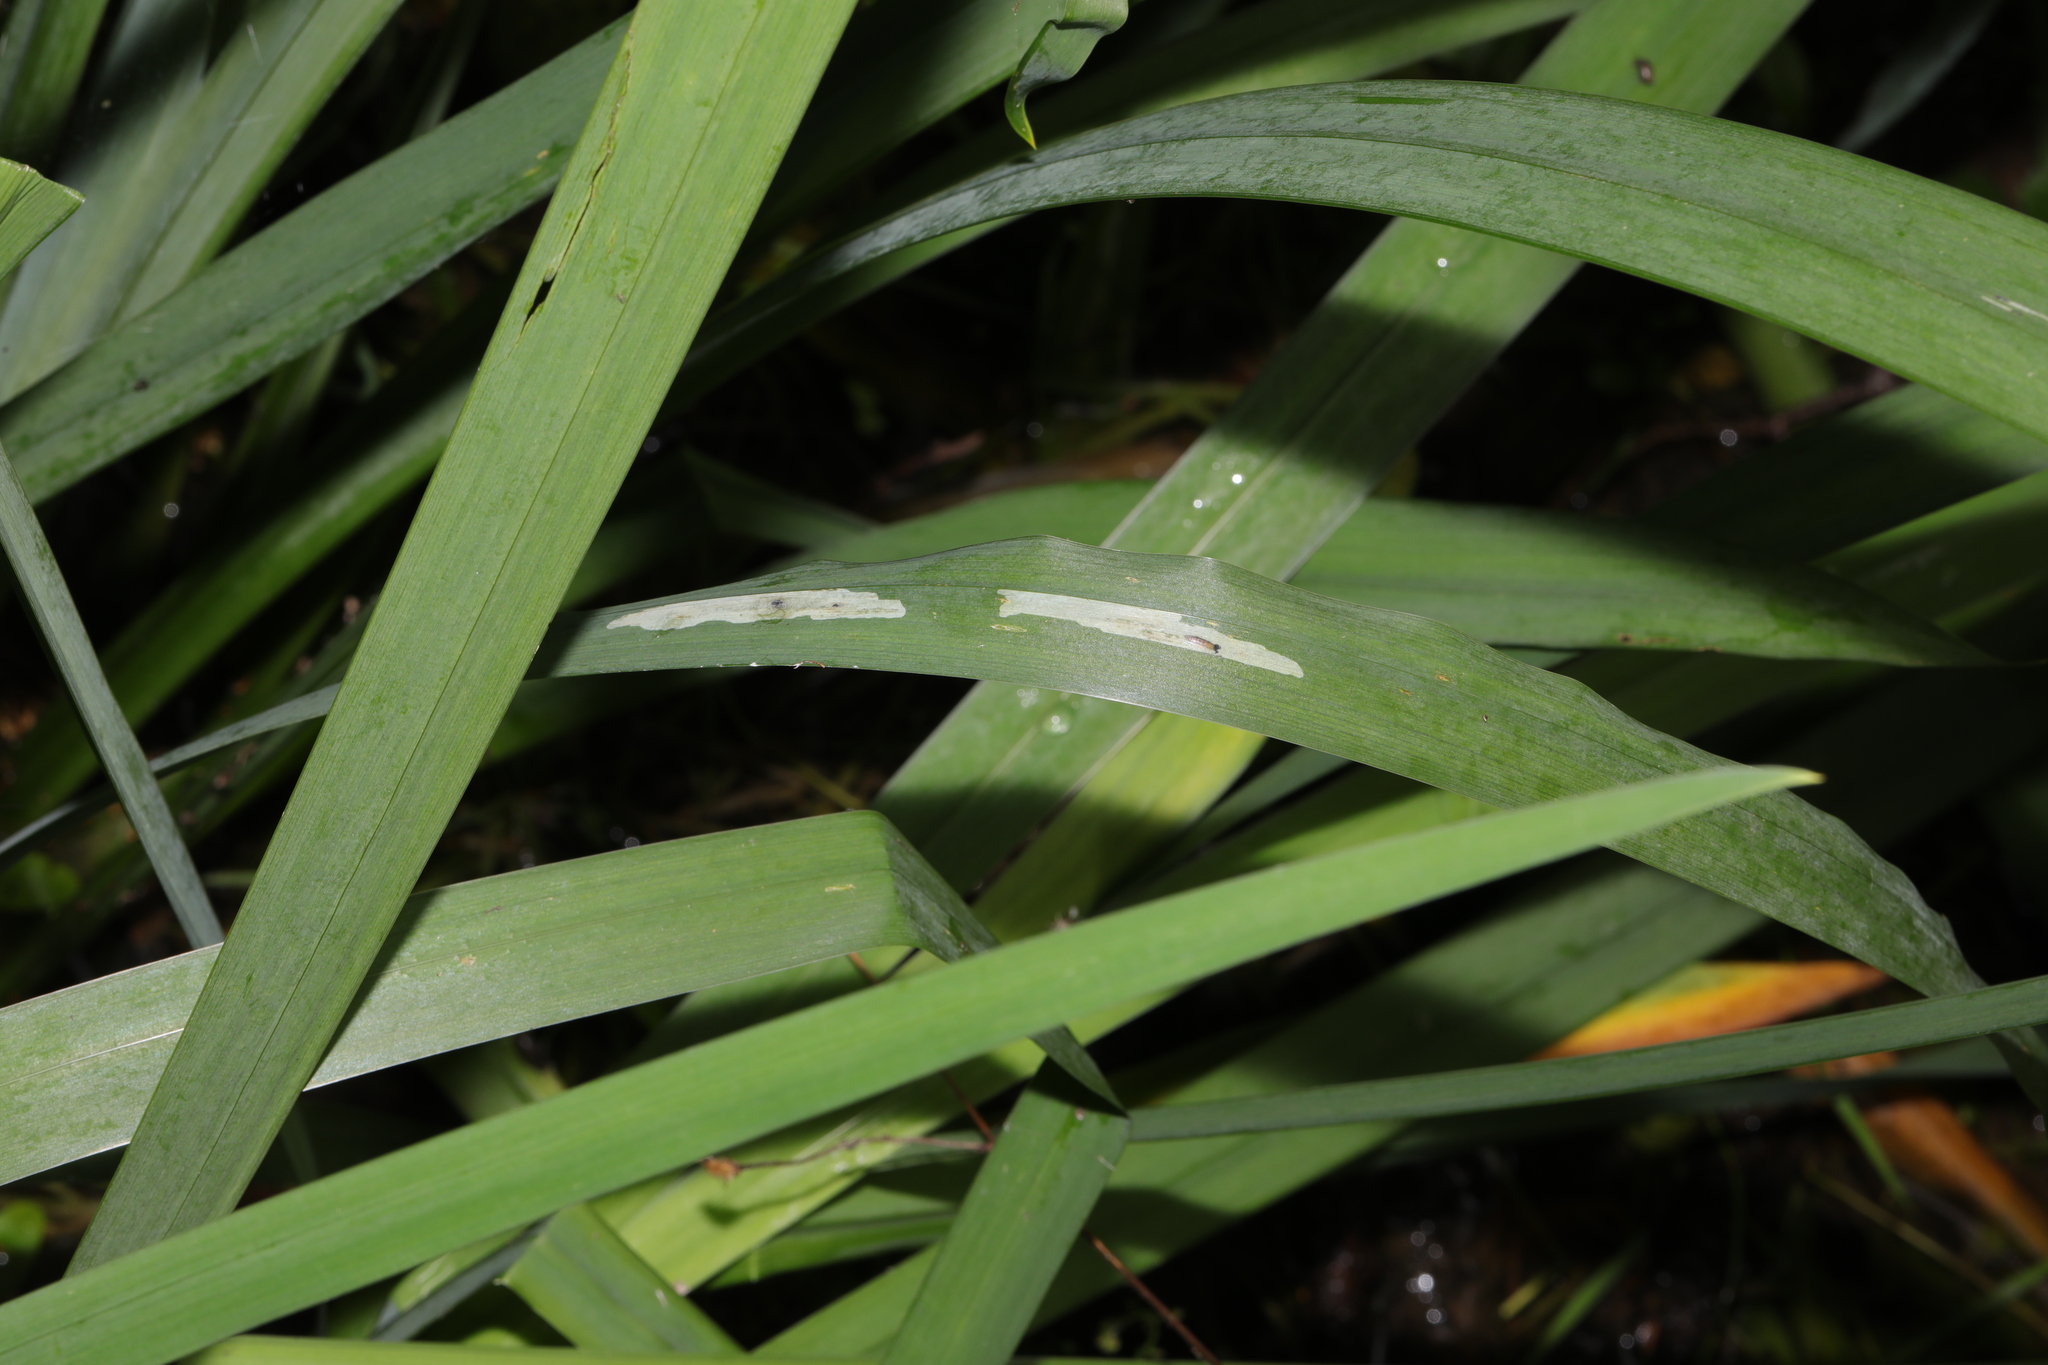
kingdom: Animalia
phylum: Arthropoda
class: Insecta
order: Diptera
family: Agromyzidae
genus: Cerodontha
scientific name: Cerodontha ircos
